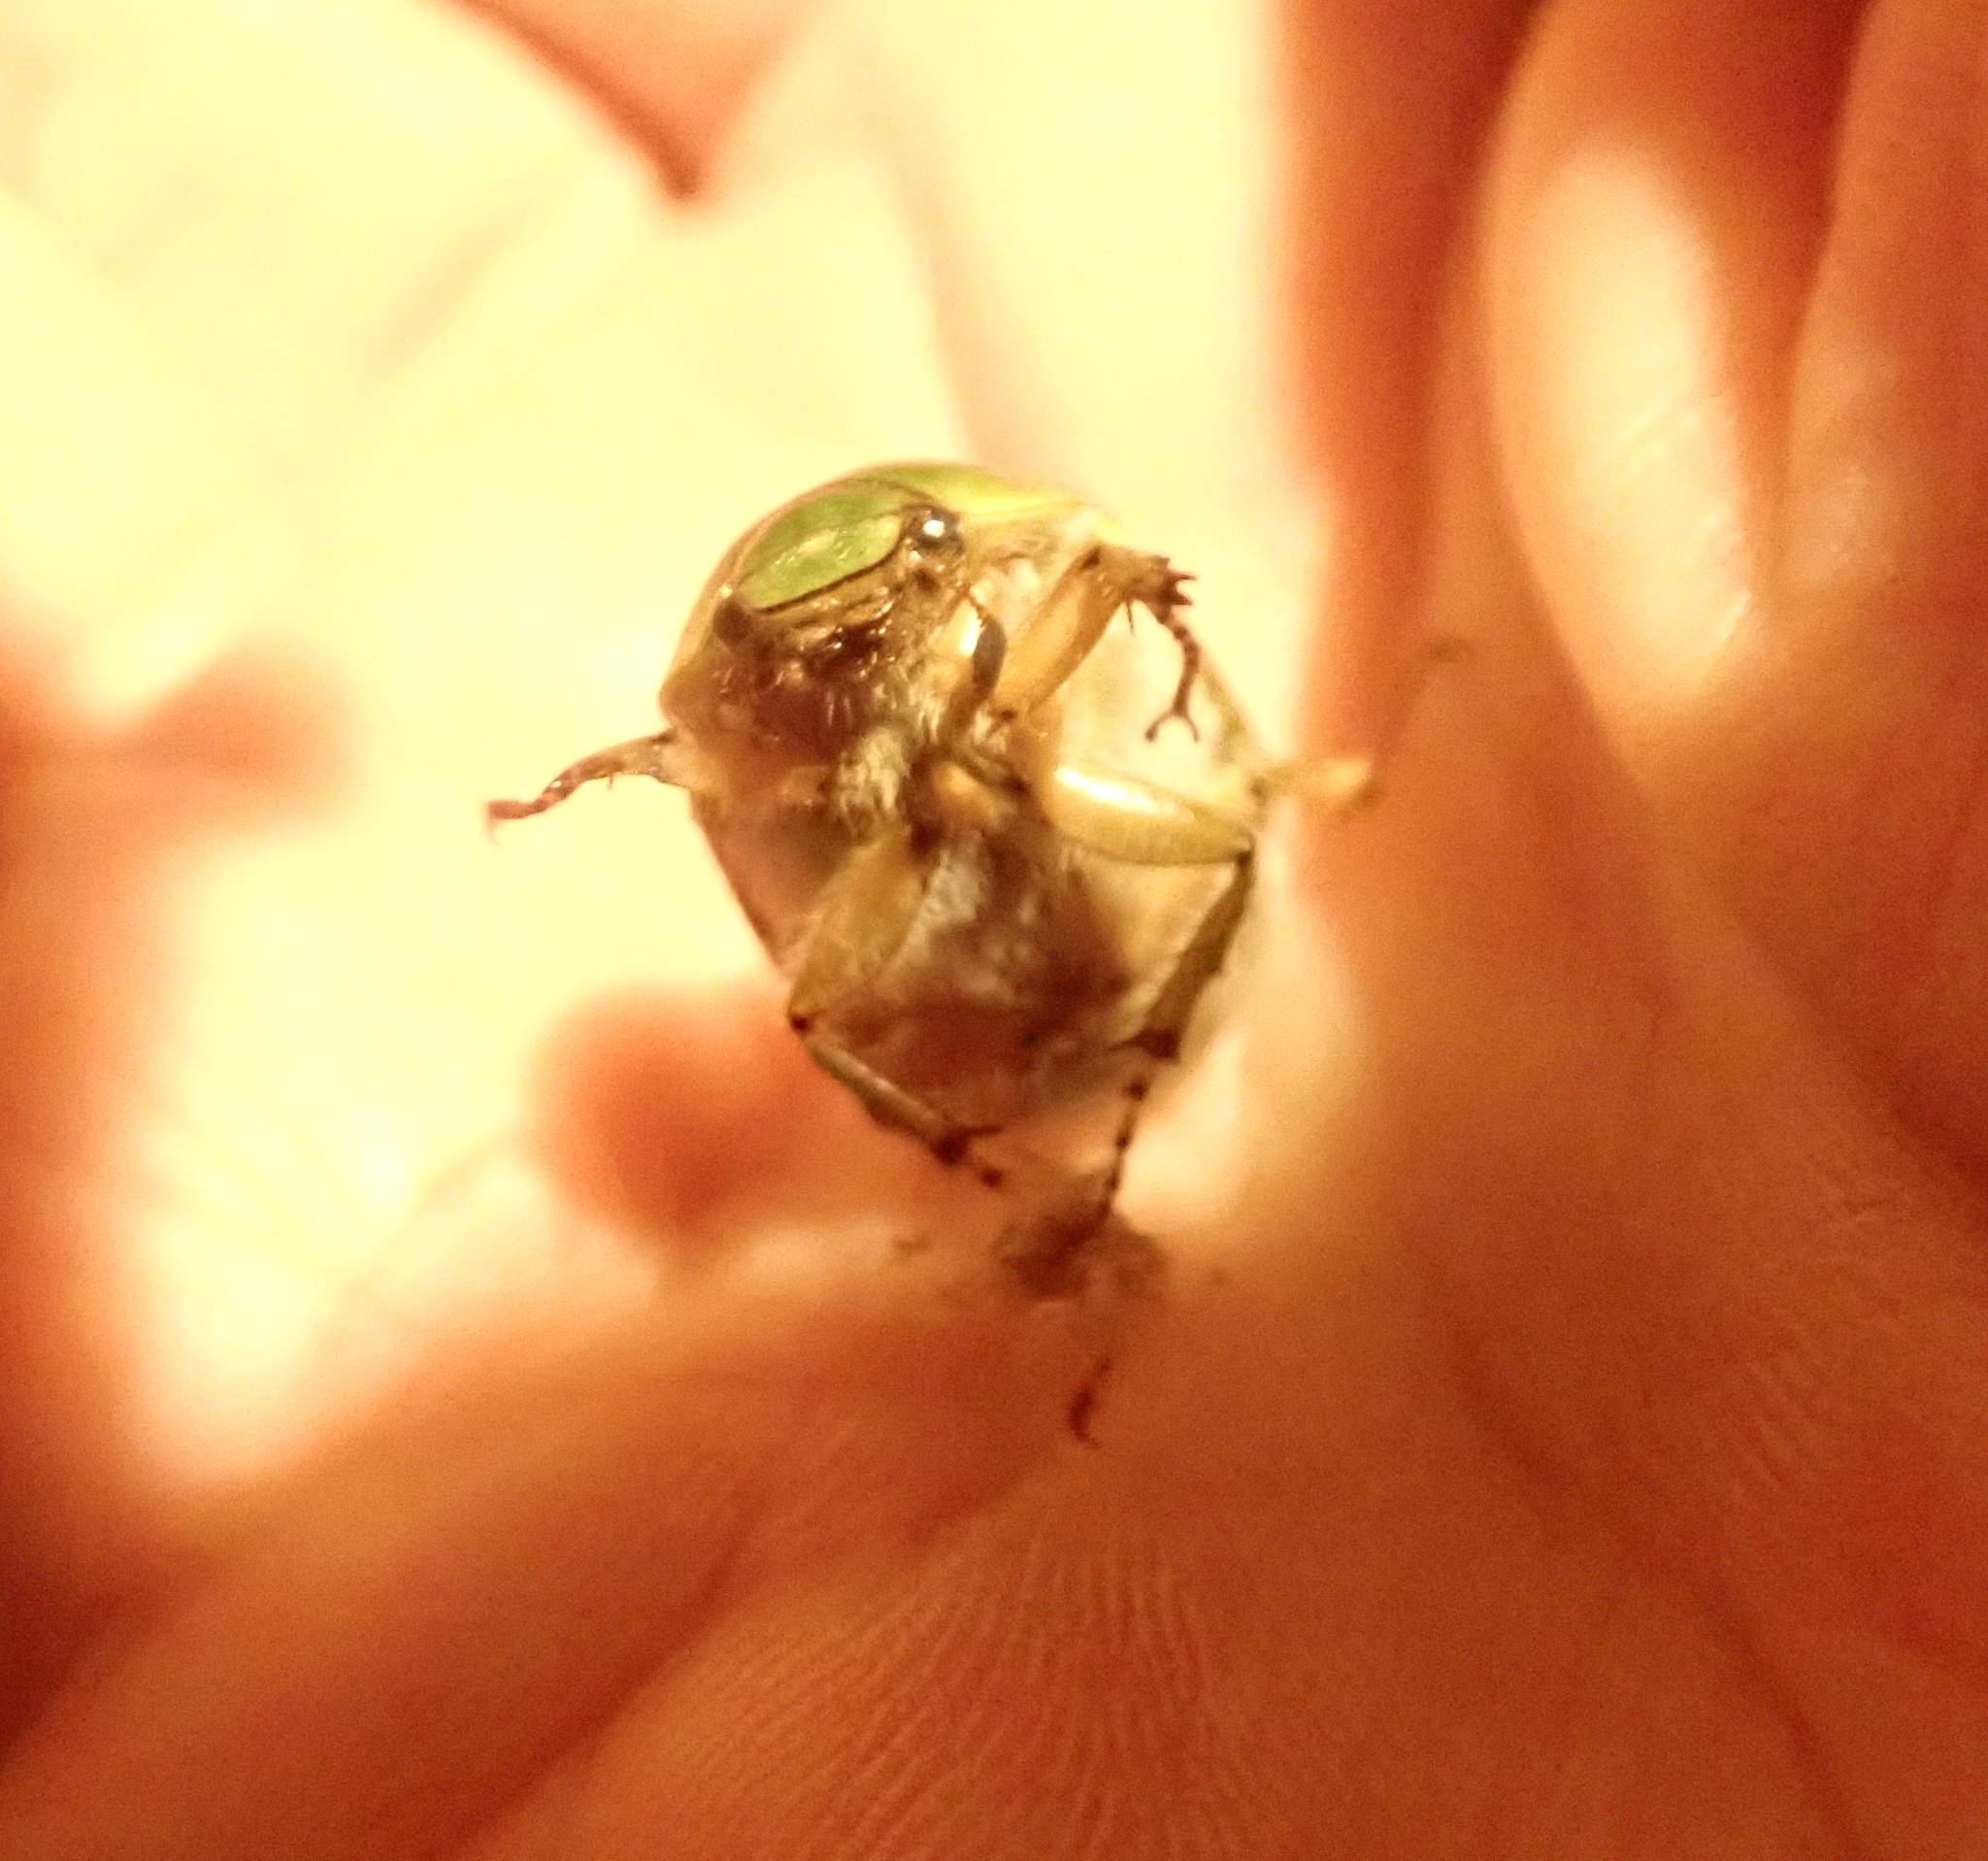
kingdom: Animalia
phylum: Arthropoda
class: Insecta
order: Coleoptera
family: Scarabaeidae
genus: Stethaspis
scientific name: Stethaspis longicornis
